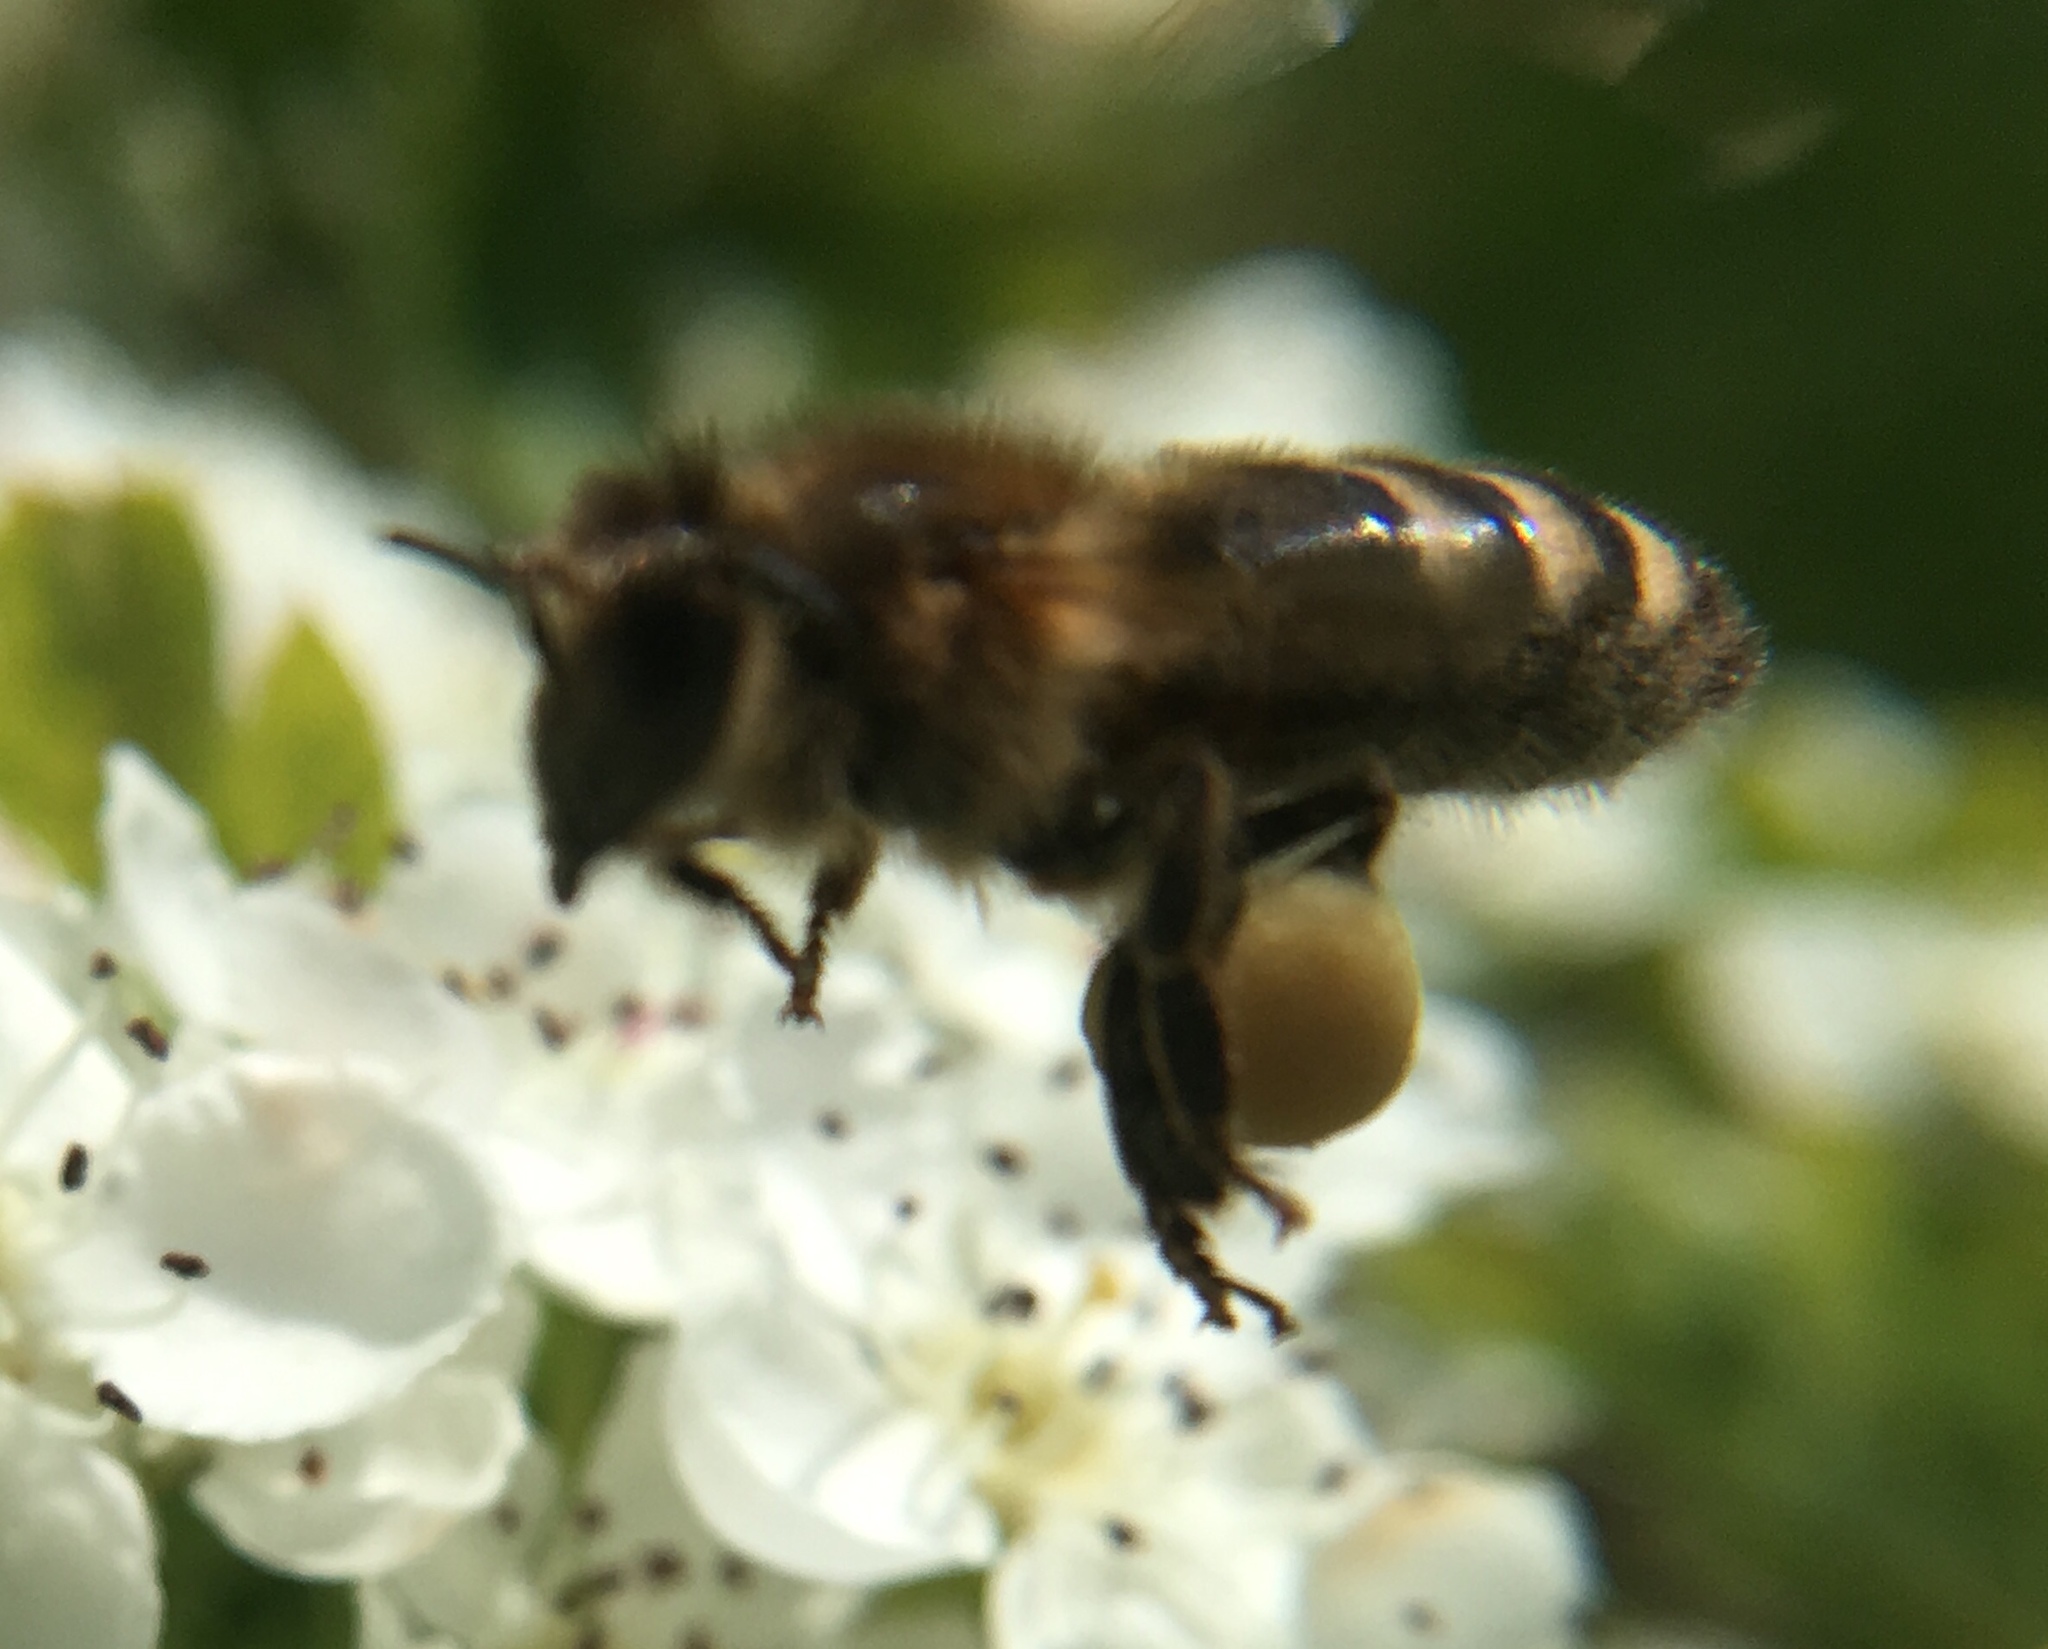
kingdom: Animalia
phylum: Arthropoda
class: Insecta
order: Hymenoptera
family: Apidae
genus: Apis
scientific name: Apis mellifera
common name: Honey bee
